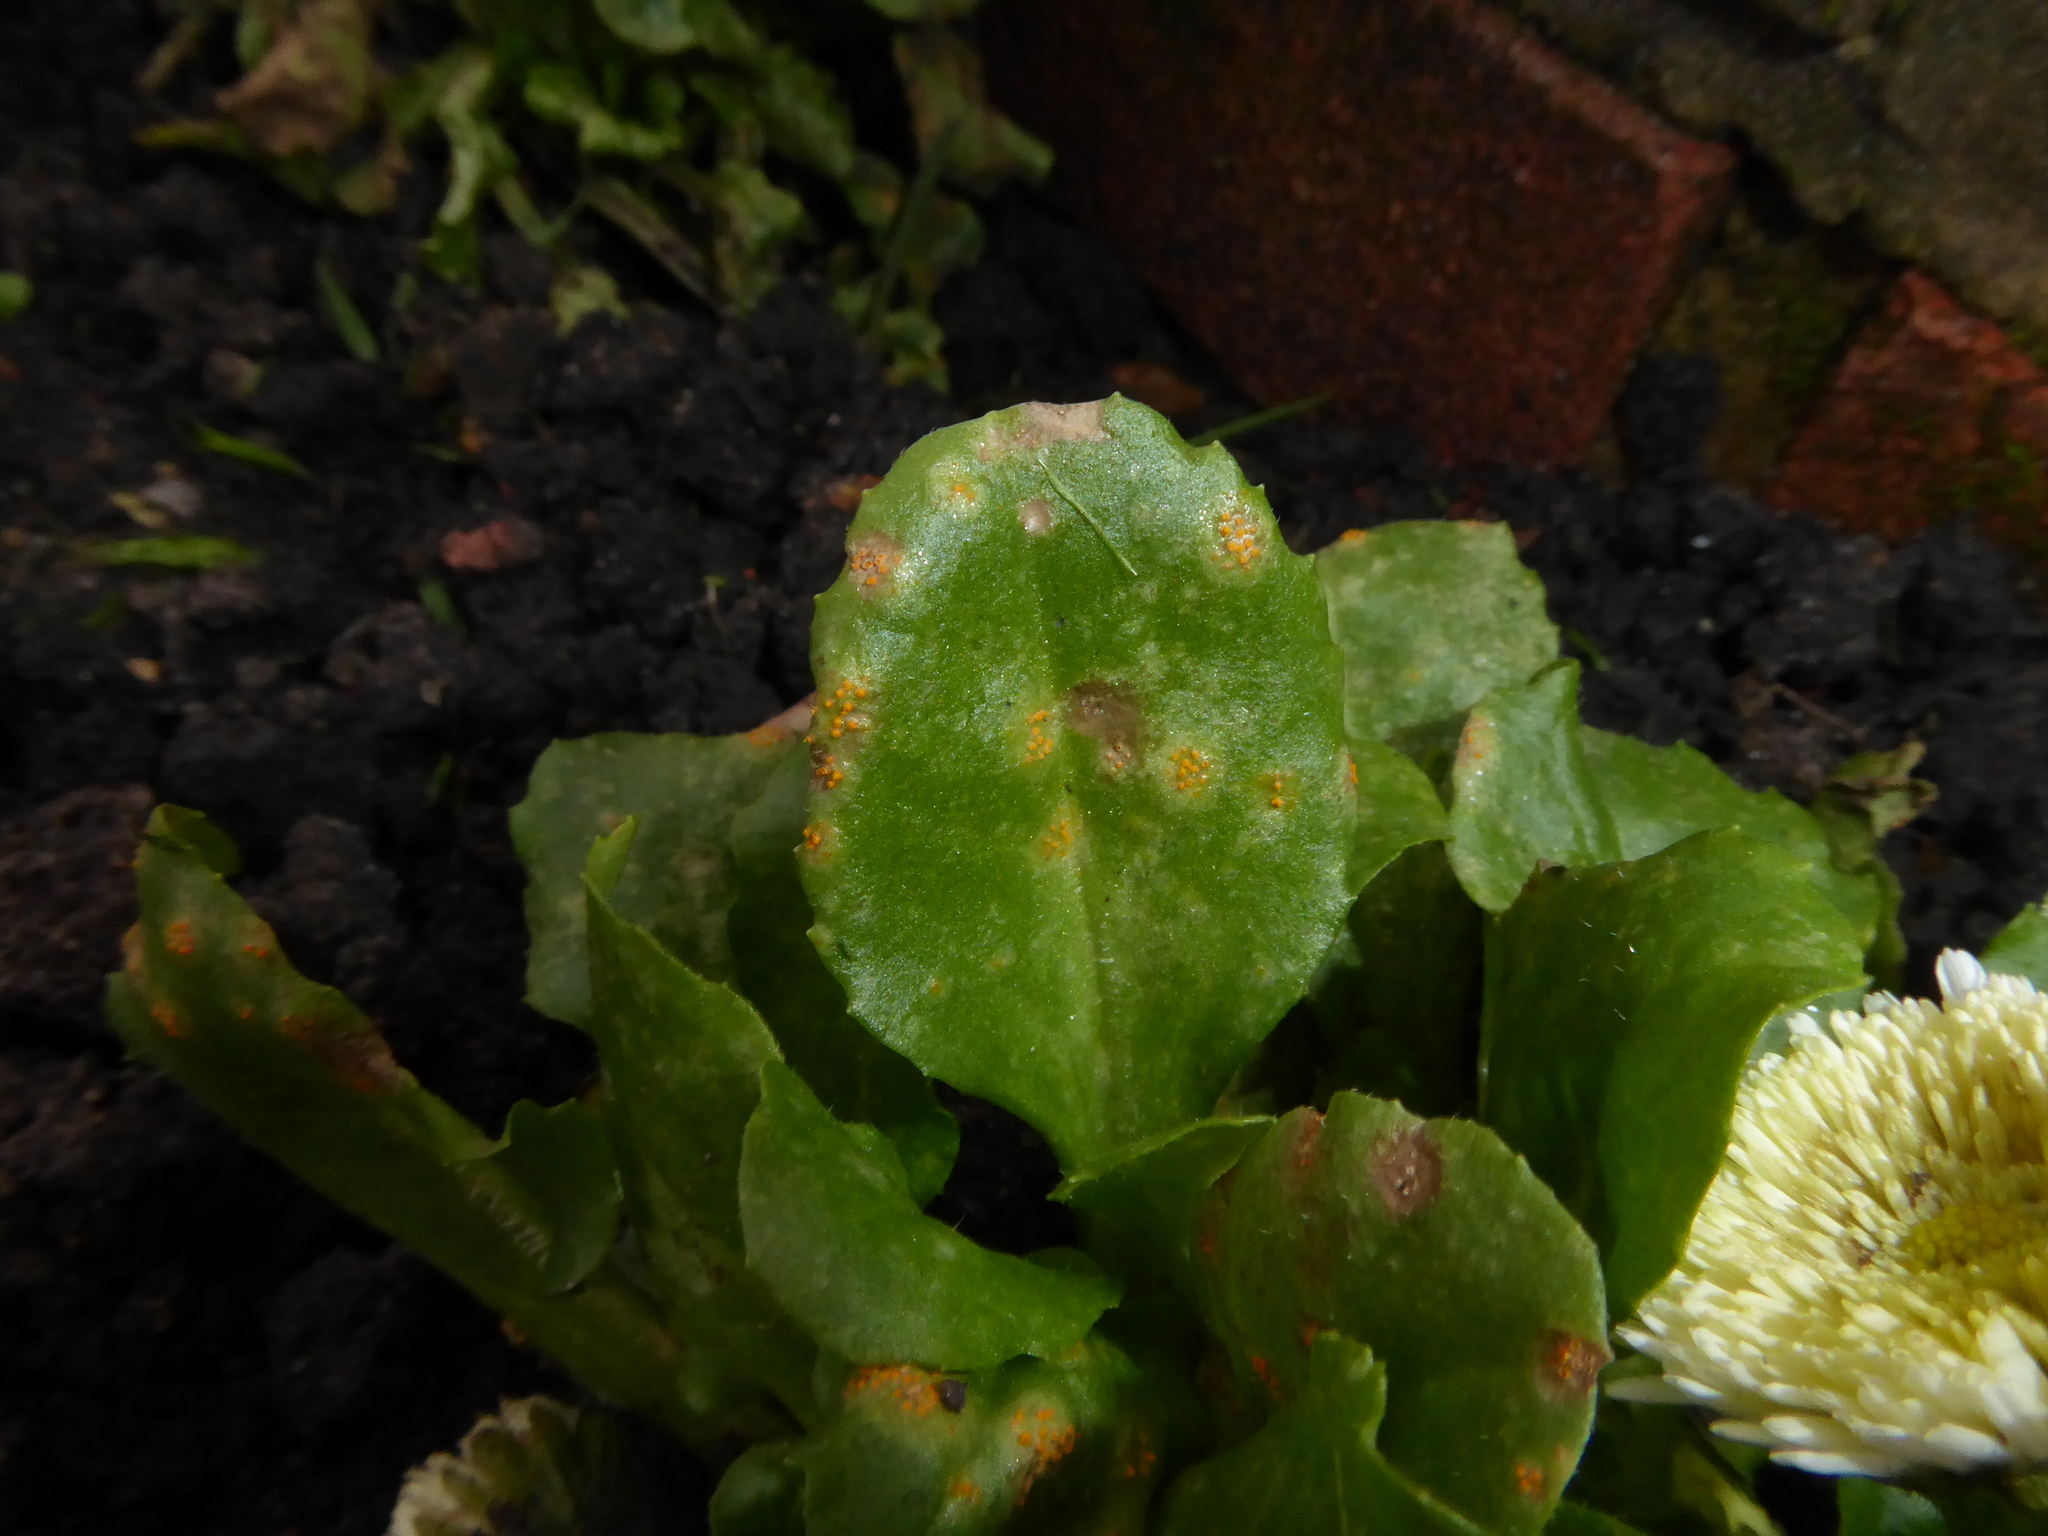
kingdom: Fungi
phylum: Basidiomycota
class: Pucciniomycetes
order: Pucciniales
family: Pucciniaceae
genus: Puccinia
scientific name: Puccinia lagenophorae
